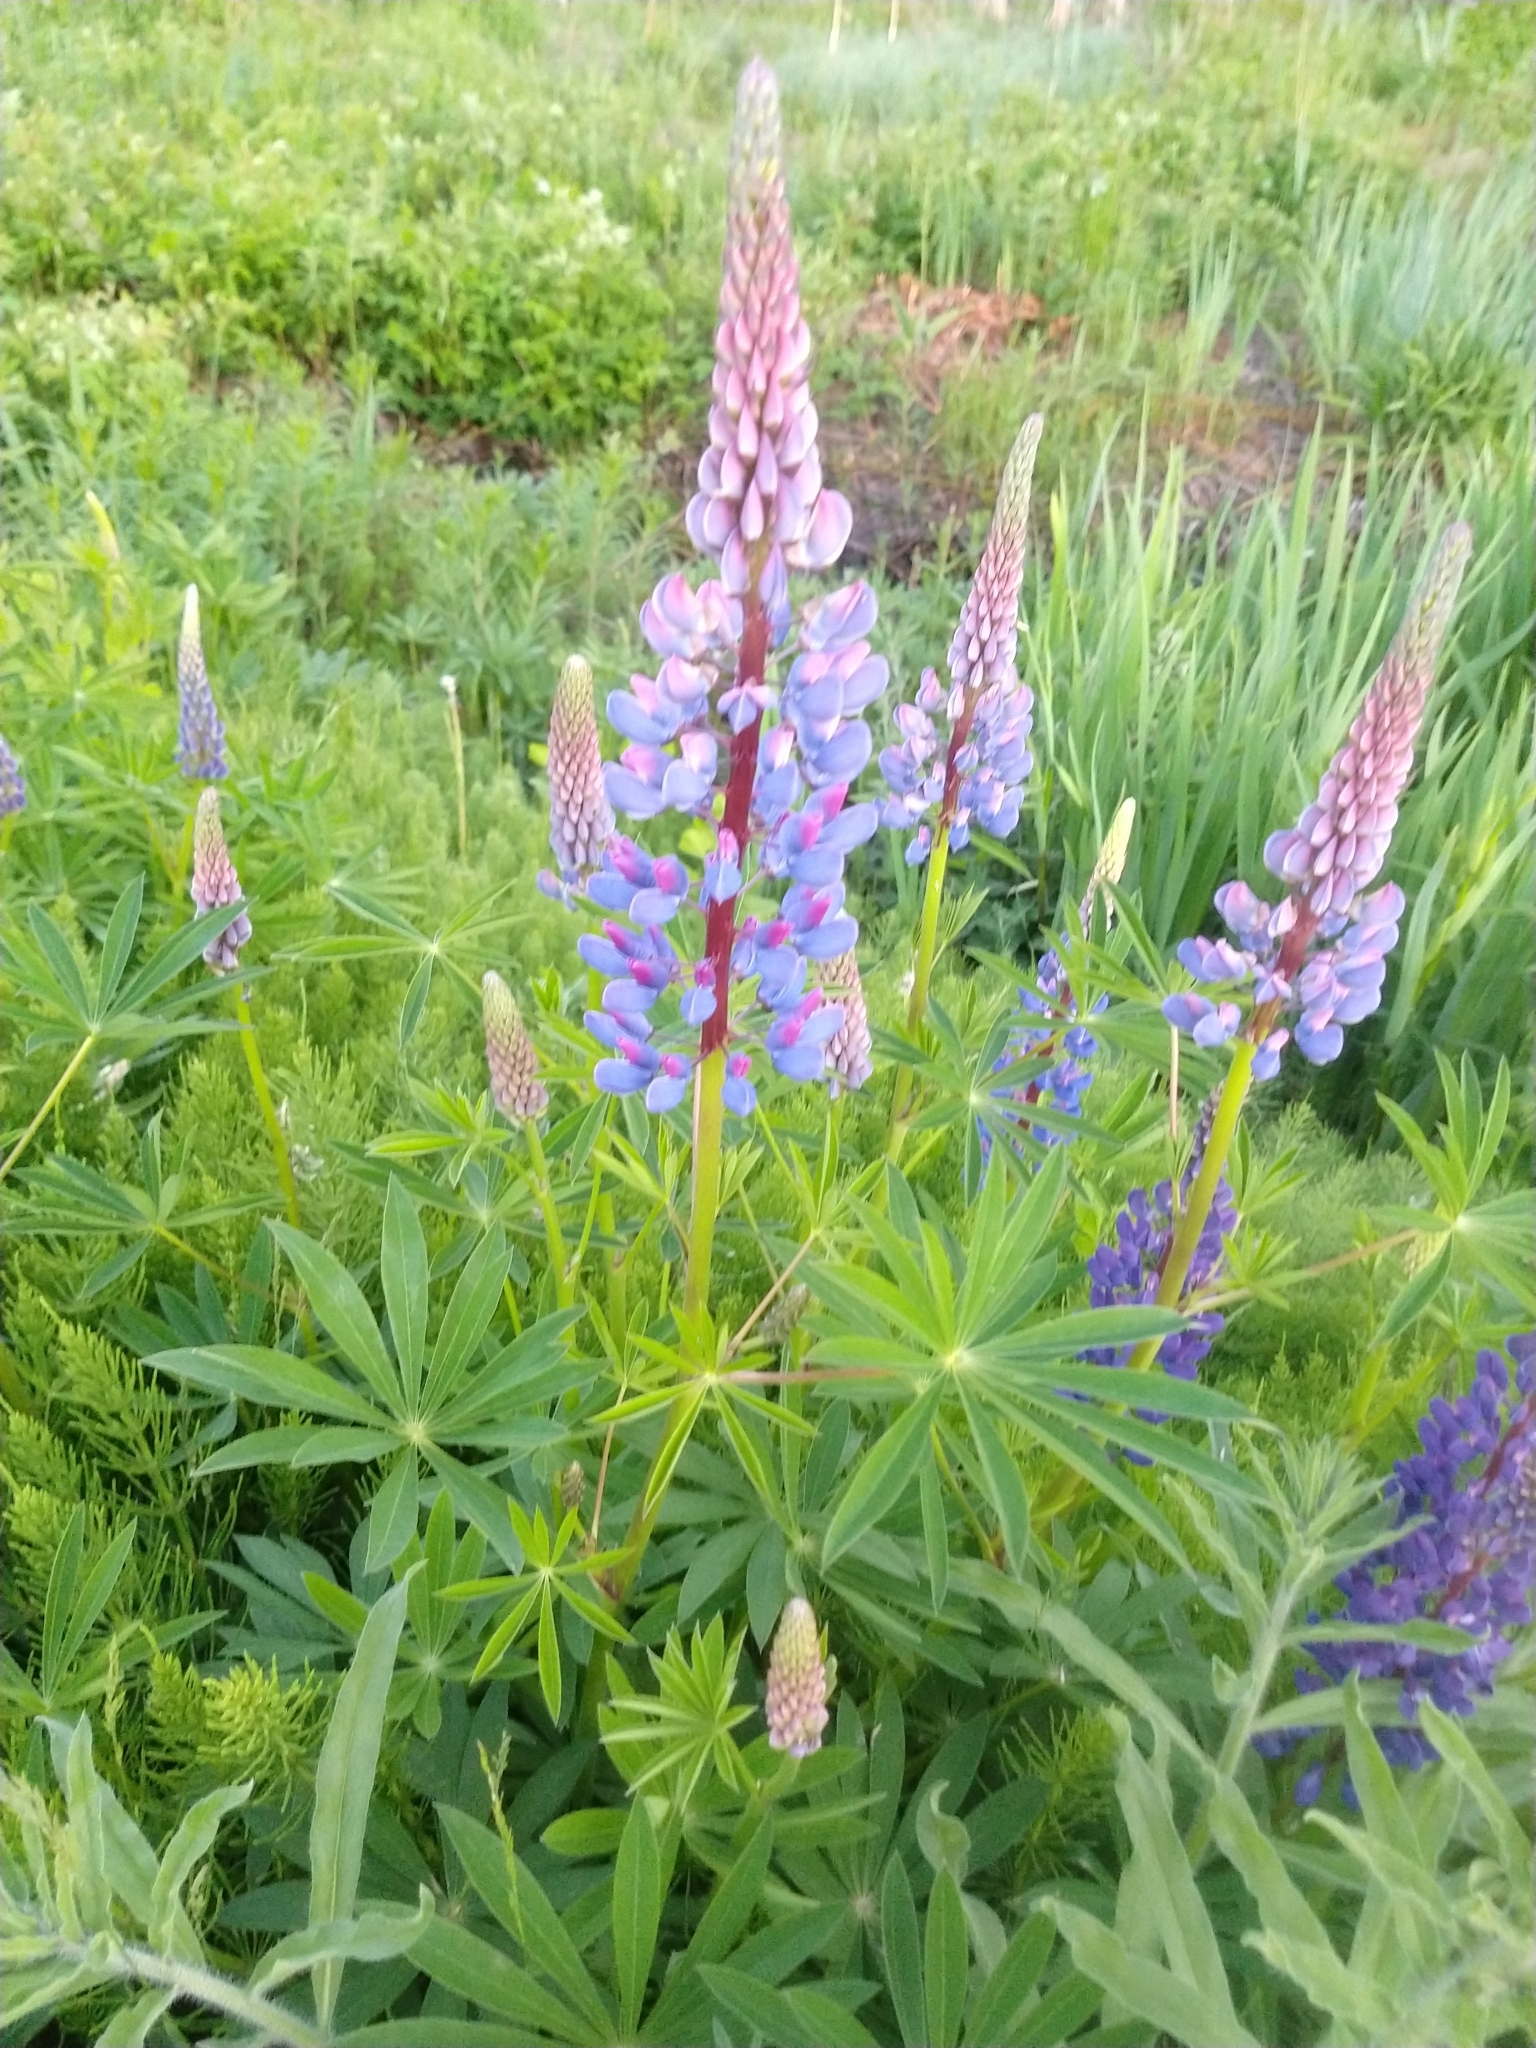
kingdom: Plantae
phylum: Tracheophyta
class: Magnoliopsida
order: Fabales
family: Fabaceae
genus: Lupinus
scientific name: Lupinus polyphyllus
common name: Garden lupin
